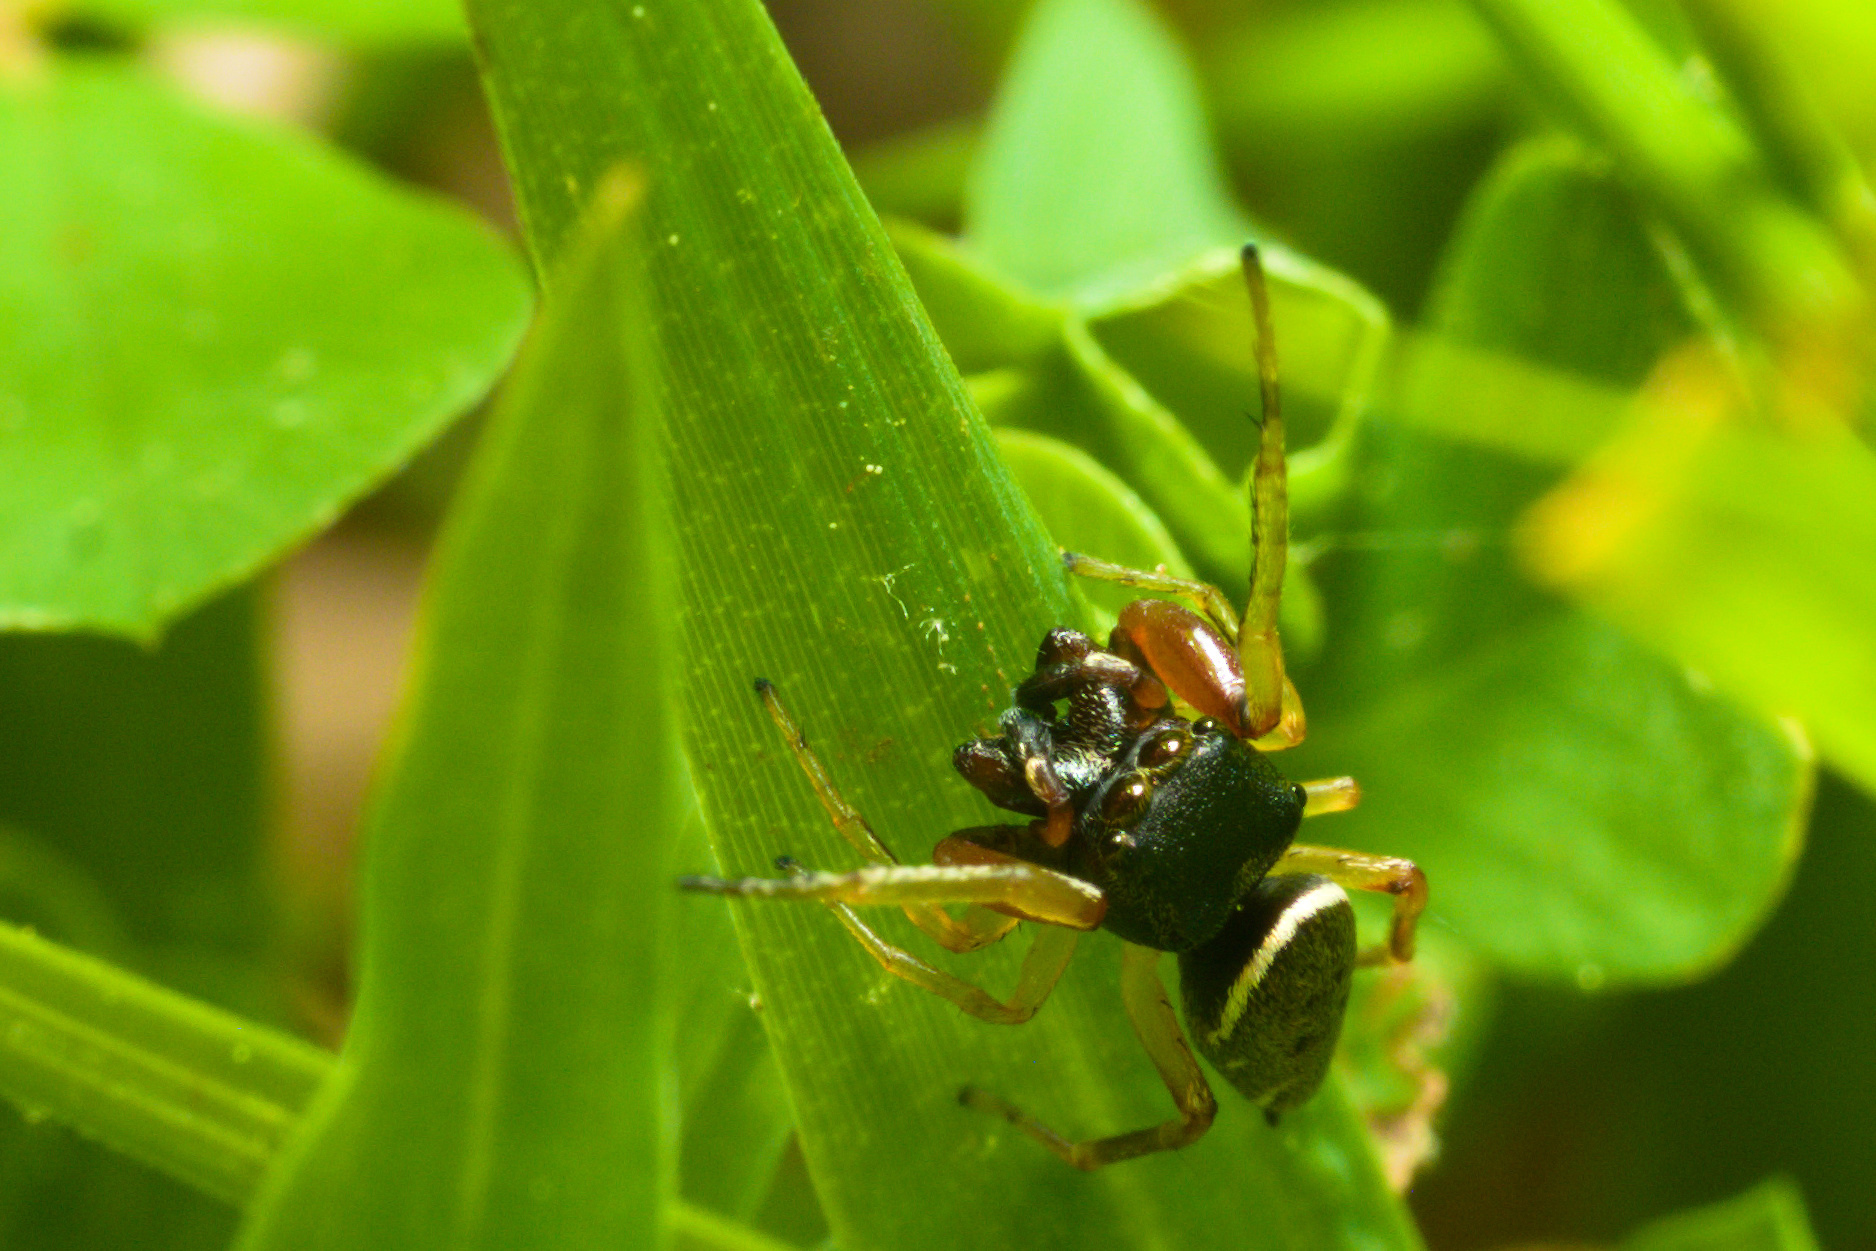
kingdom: Animalia
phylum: Arthropoda
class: Arachnida
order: Araneae
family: Salticidae
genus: Zygoballus
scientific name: Zygoballus rufipes
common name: Jumping spiders
